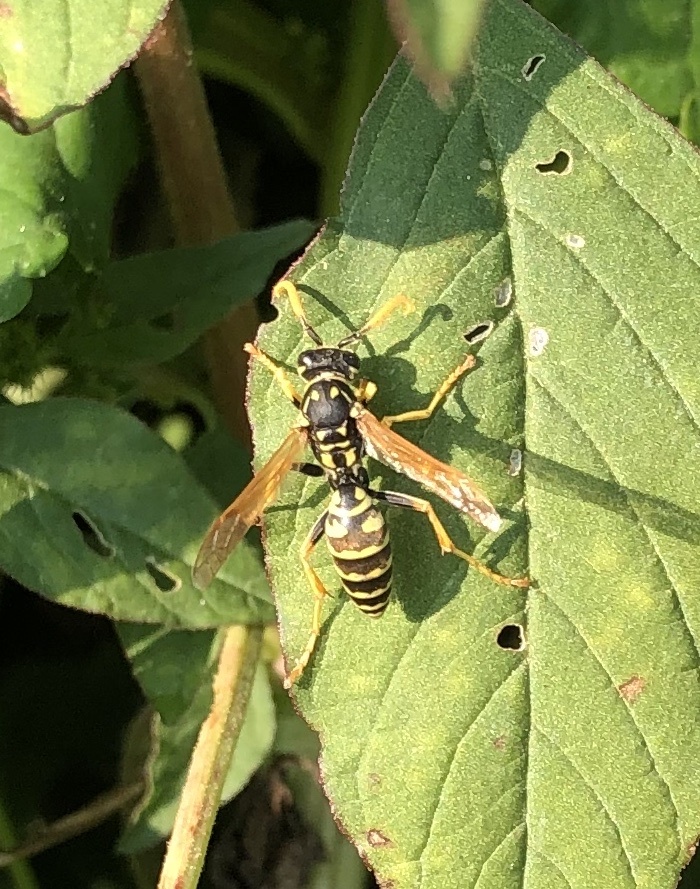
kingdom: Animalia
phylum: Arthropoda
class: Insecta
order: Hymenoptera
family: Eumenidae
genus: Polistes
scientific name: Polistes dominula
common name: Paper wasp
